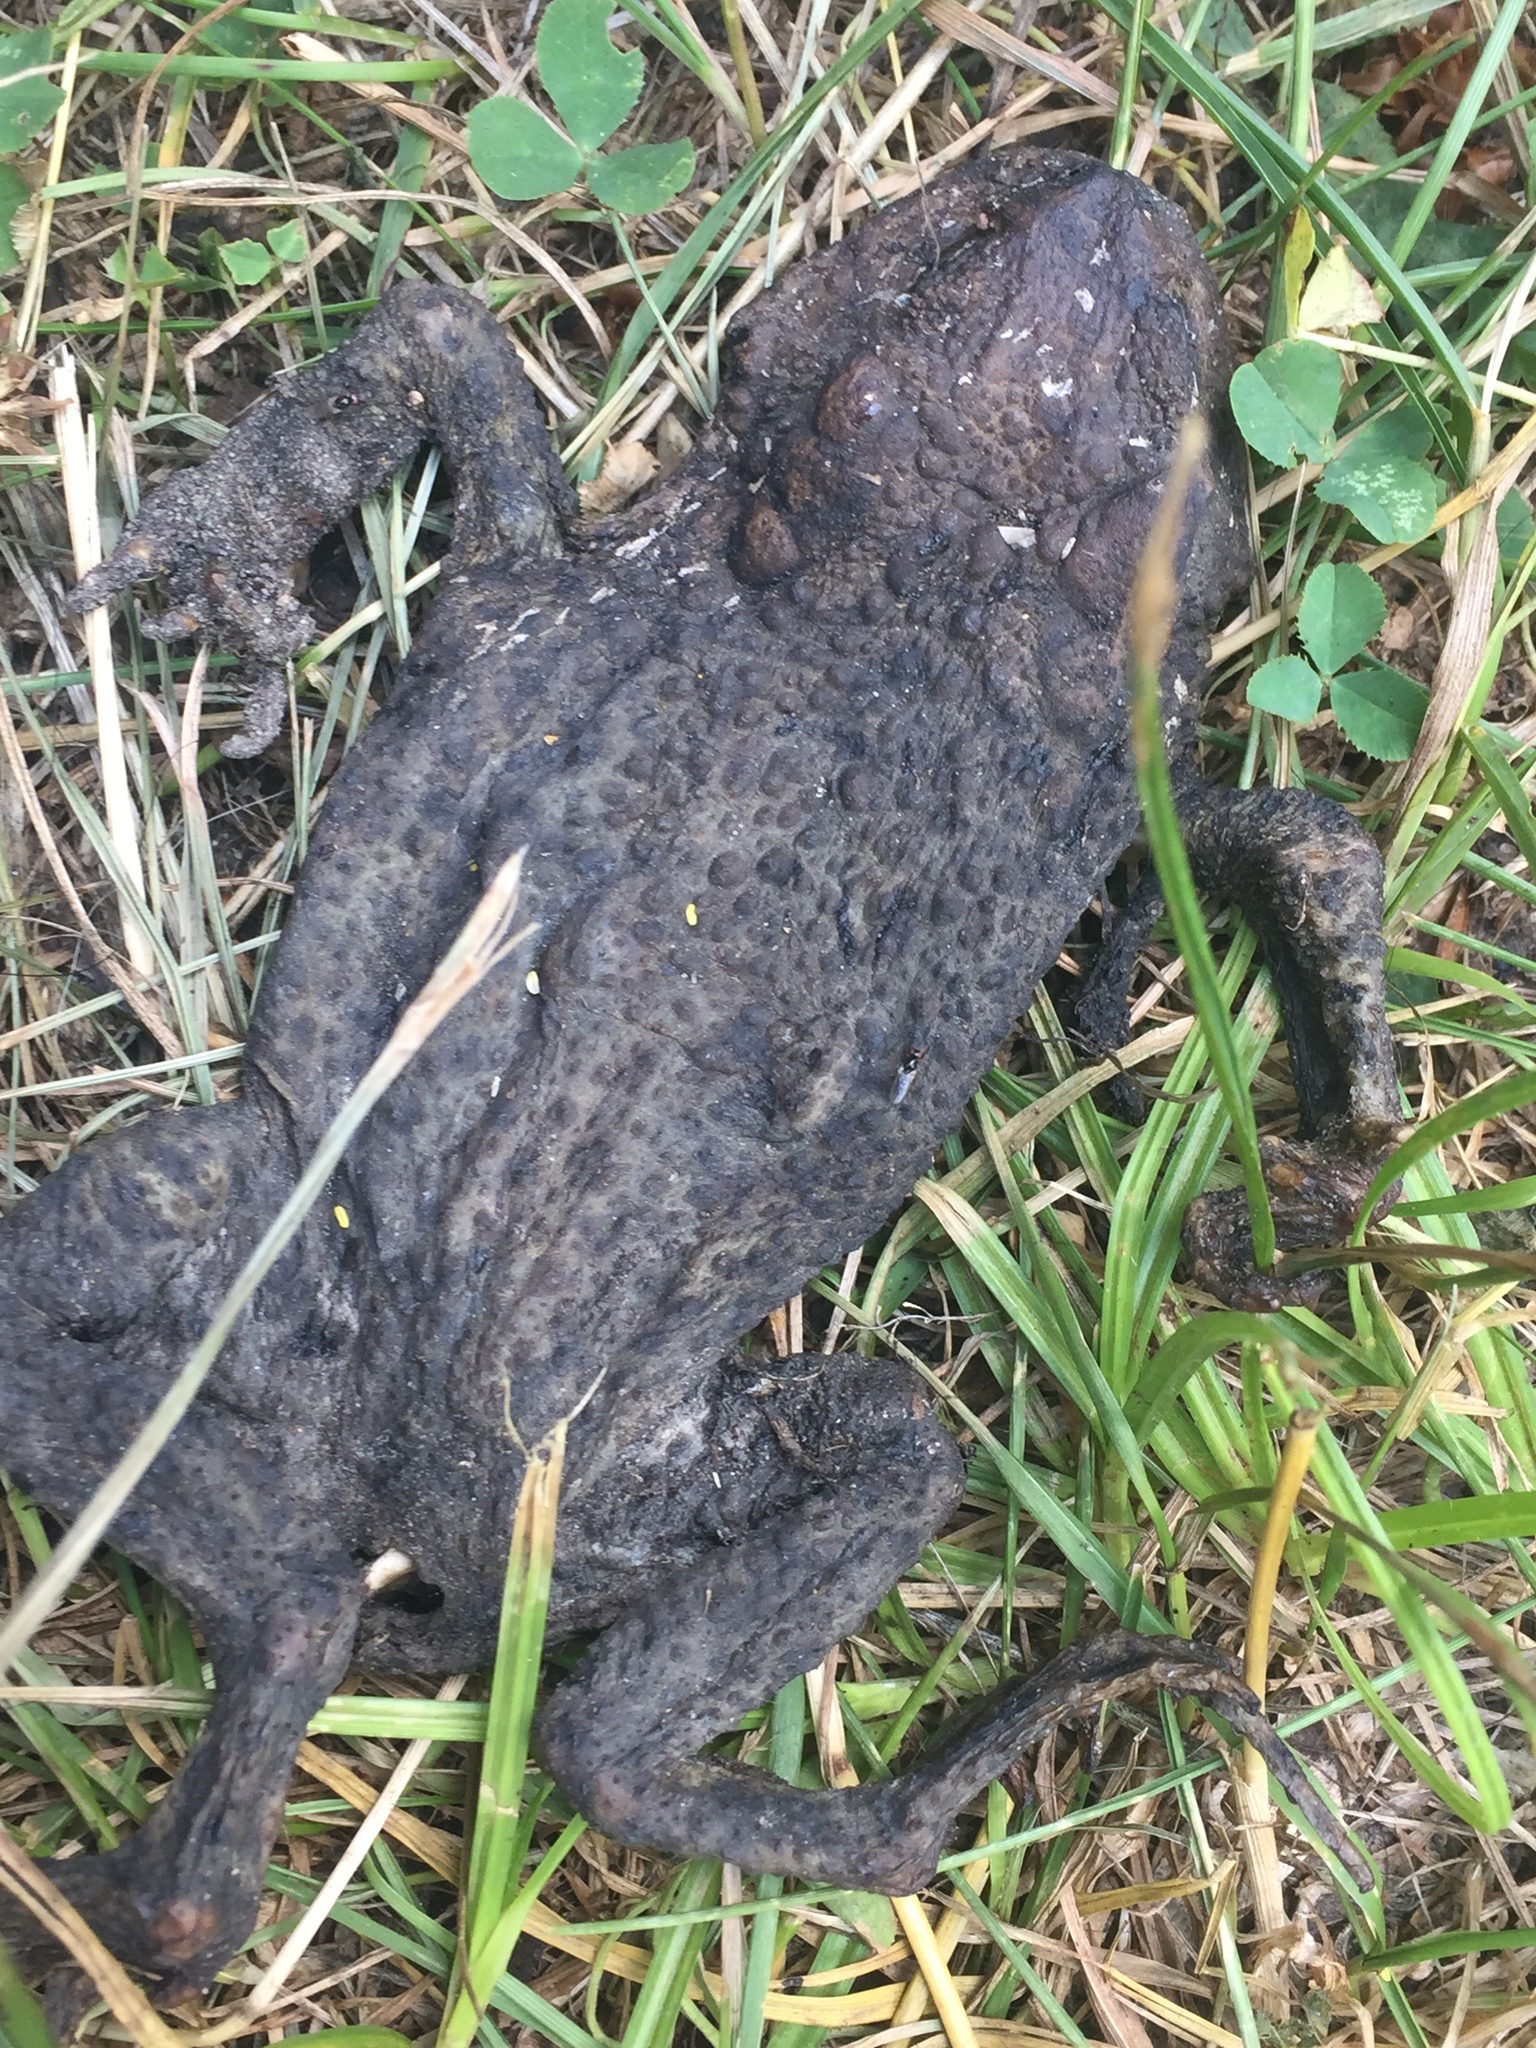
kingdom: Animalia
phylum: Chordata
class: Amphibia
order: Anura
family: Bufonidae
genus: Bufo
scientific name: Bufo bufo
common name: Common toad
